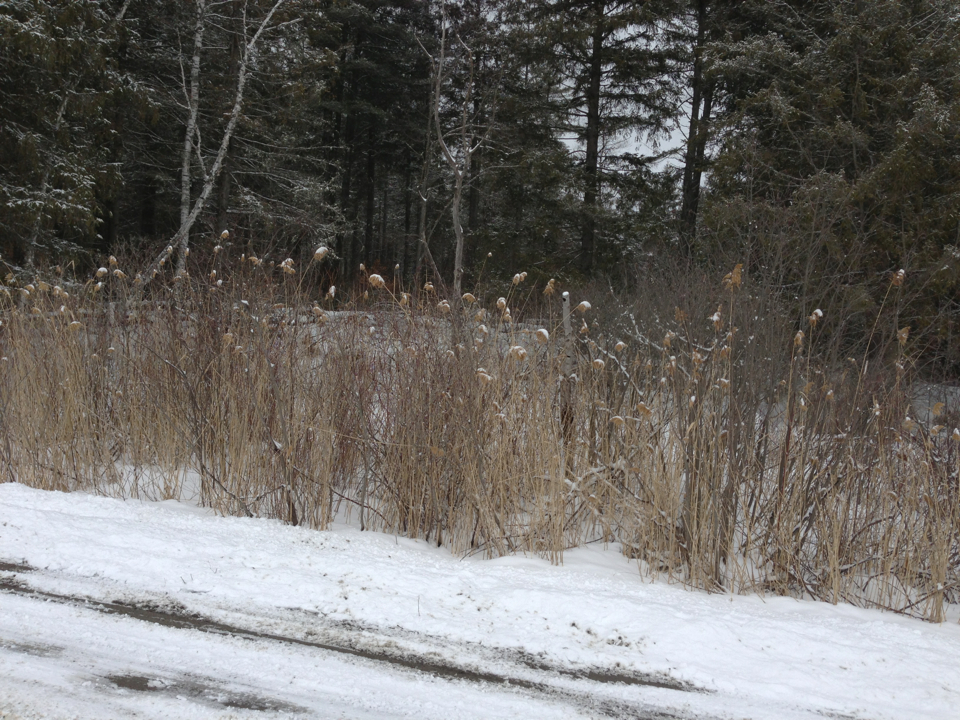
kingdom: Plantae
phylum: Tracheophyta
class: Liliopsida
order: Poales
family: Poaceae
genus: Phragmites
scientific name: Phragmites australis
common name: Common reed
